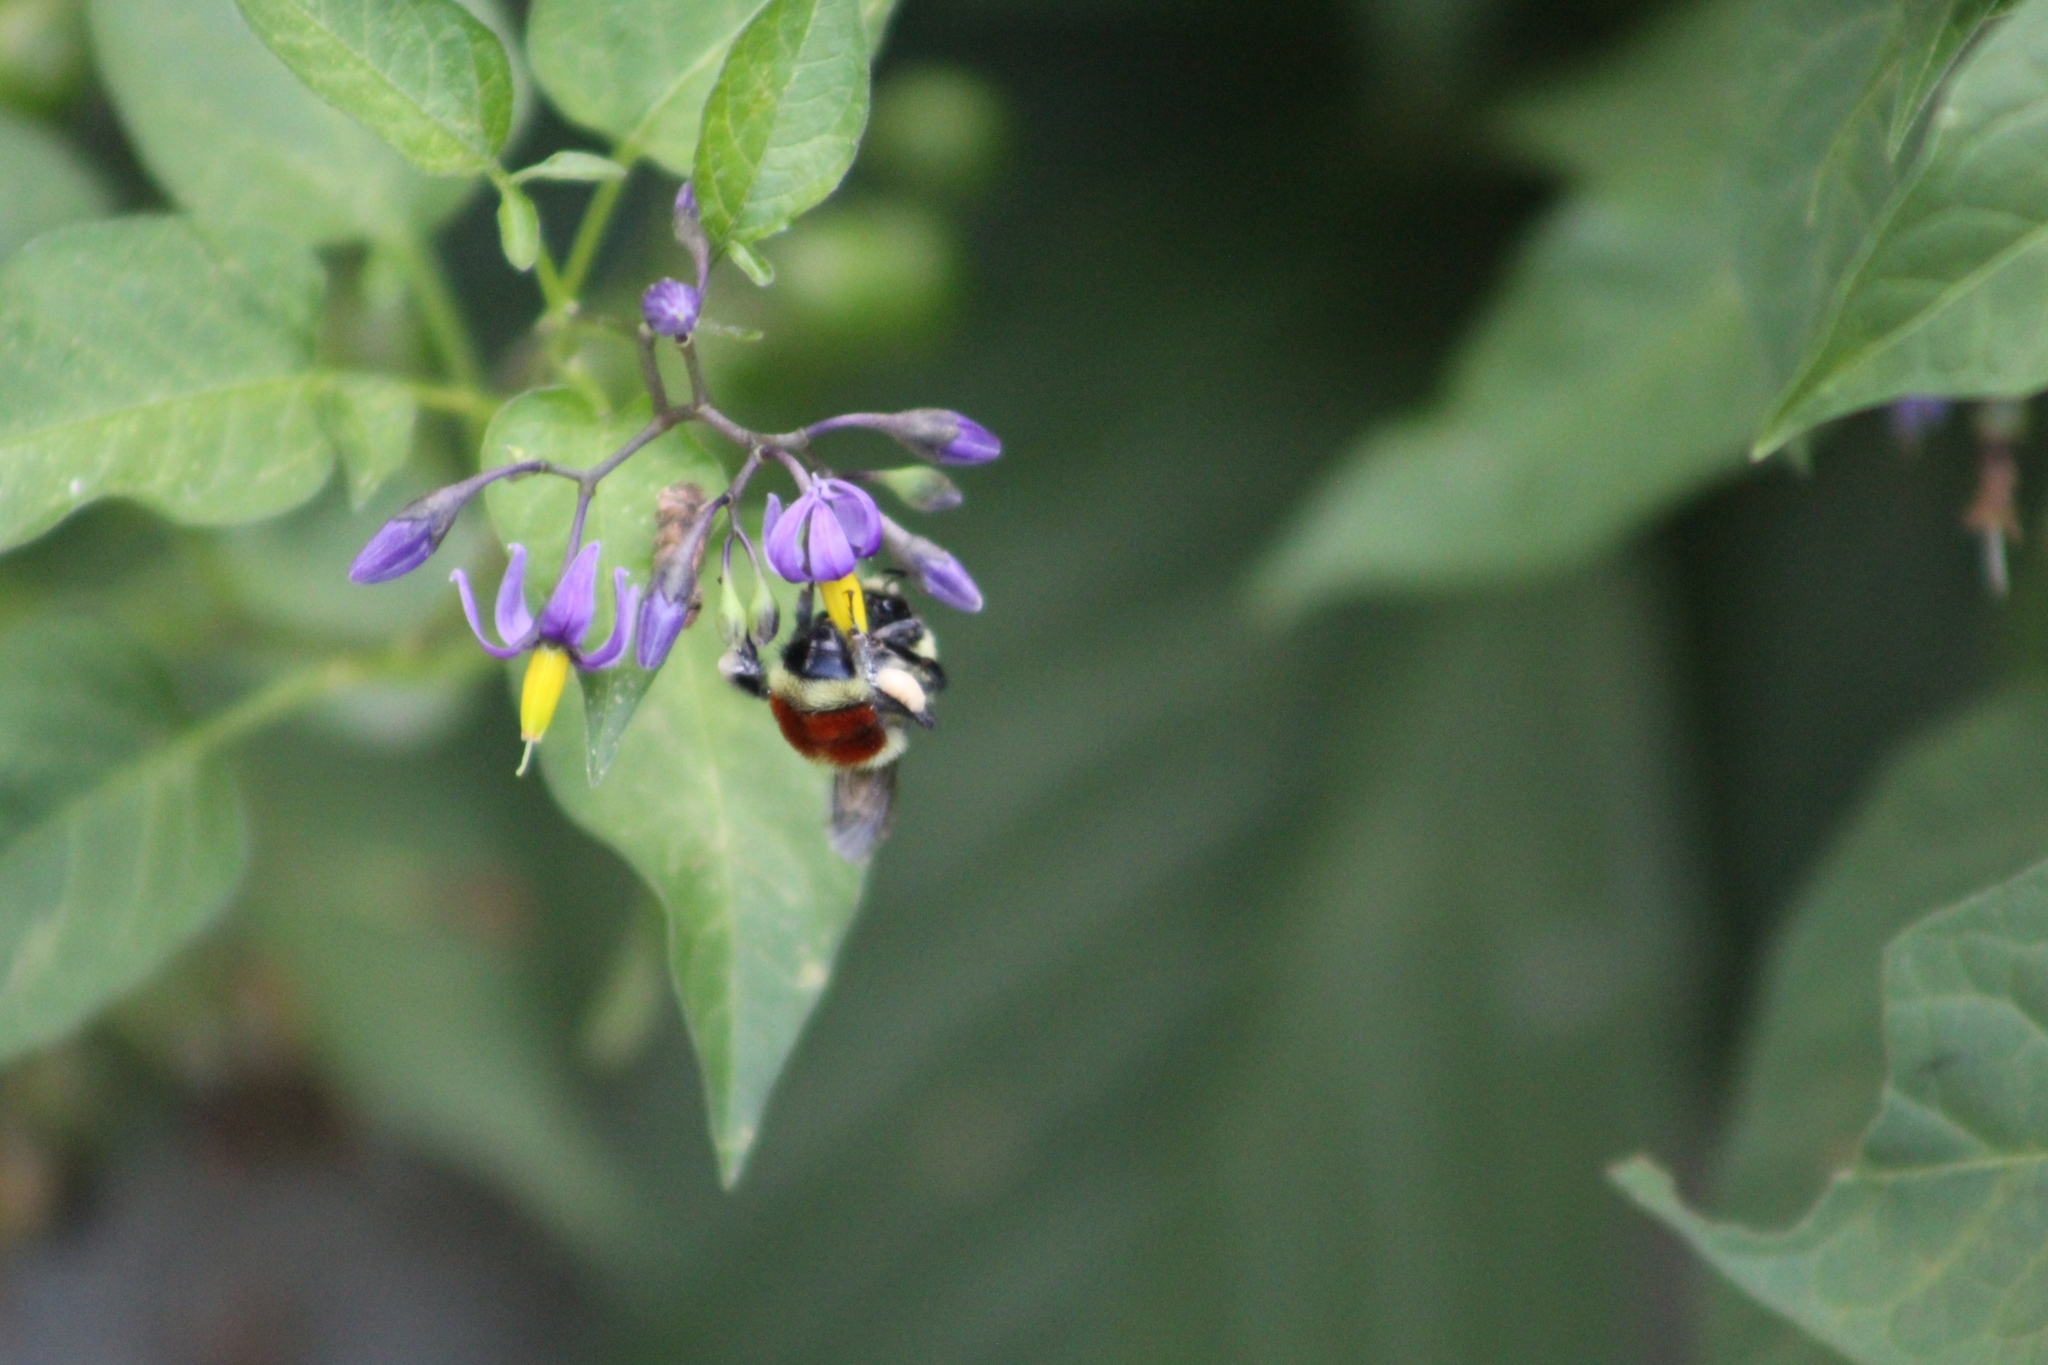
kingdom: Animalia
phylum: Arthropoda
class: Insecta
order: Hymenoptera
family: Apidae
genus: Bombus
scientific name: Bombus huntii
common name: Hunt bumble bee
